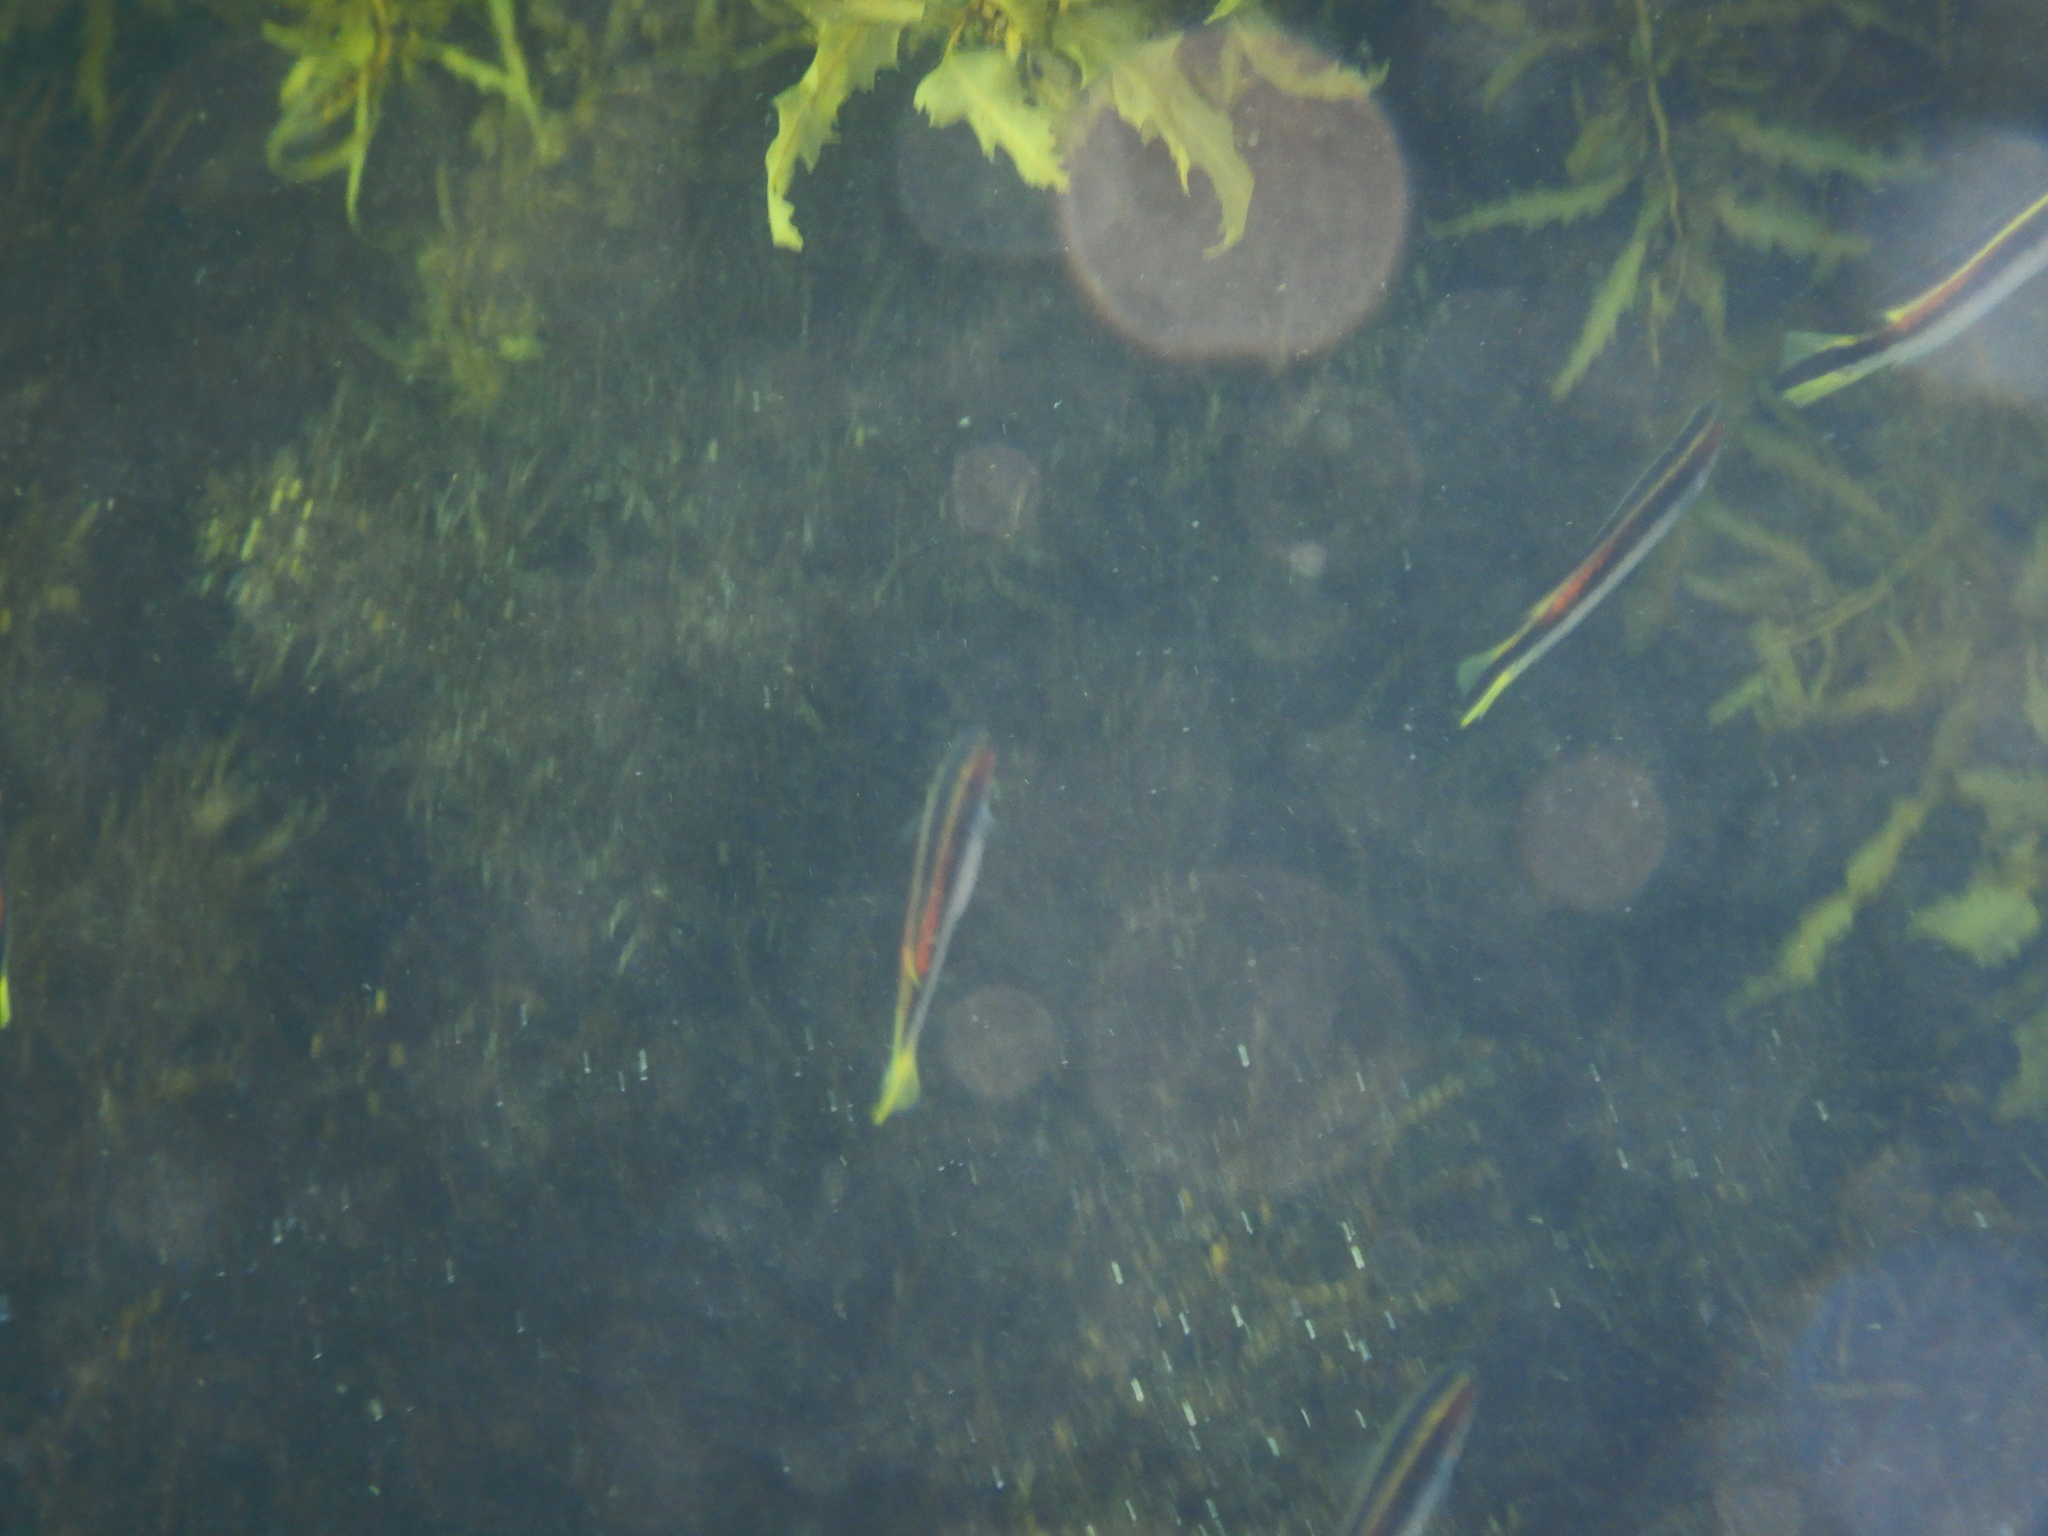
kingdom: Animalia
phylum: Chordata
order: Perciformes
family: Plesiopidae
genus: Trachinops
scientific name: Trachinops taeniatus
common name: Eastern hulafish
